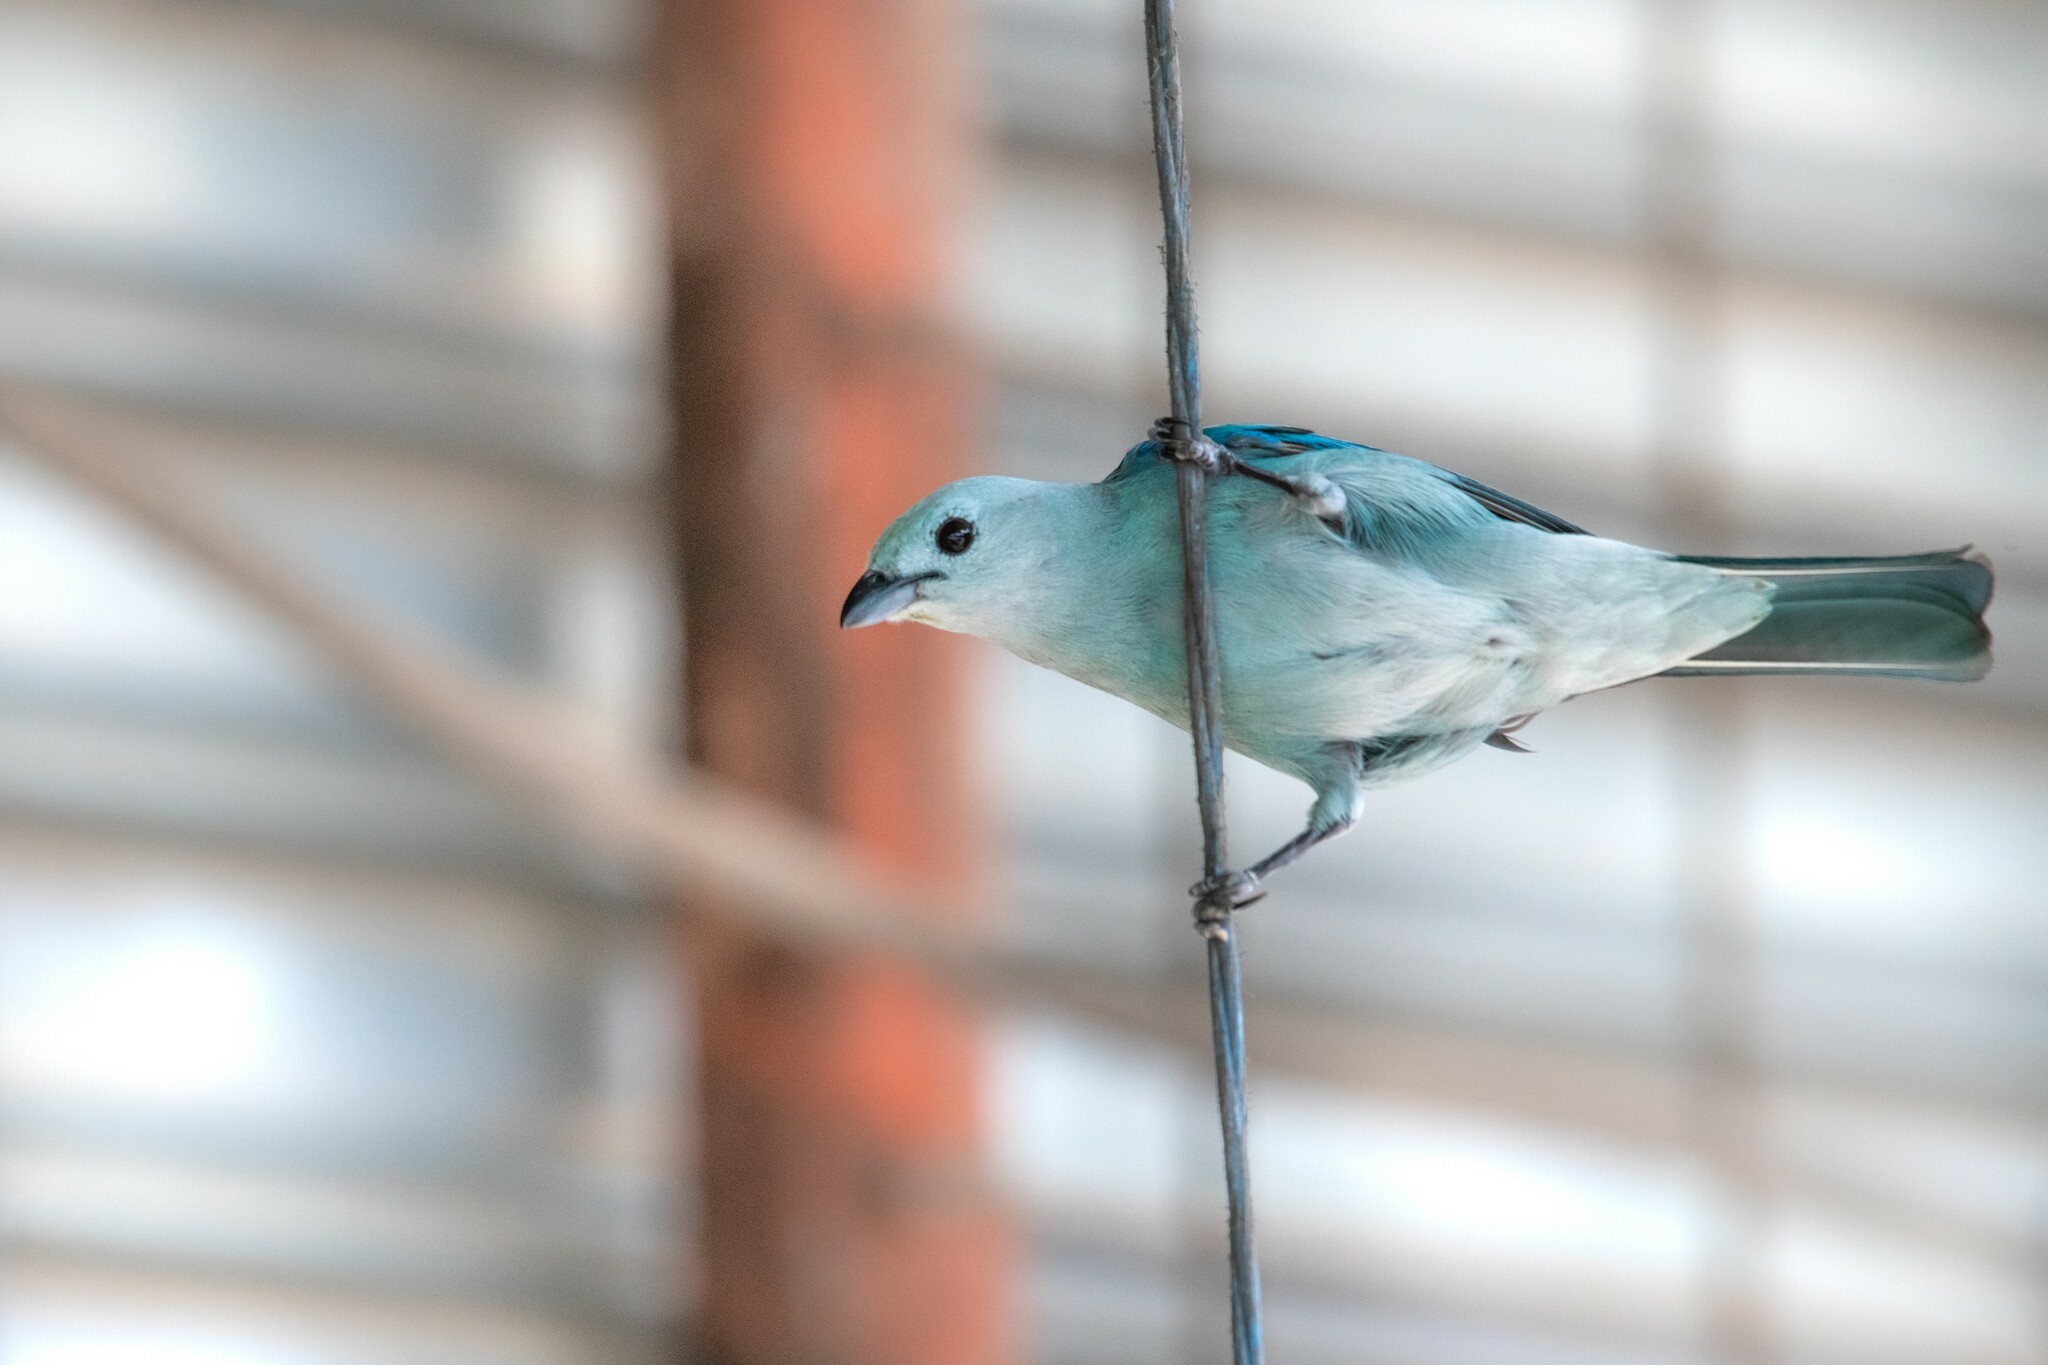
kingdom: Animalia
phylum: Chordata
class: Aves
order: Passeriformes
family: Thraupidae
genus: Thraupis
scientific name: Thraupis episcopus
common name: Blue-grey tanager
